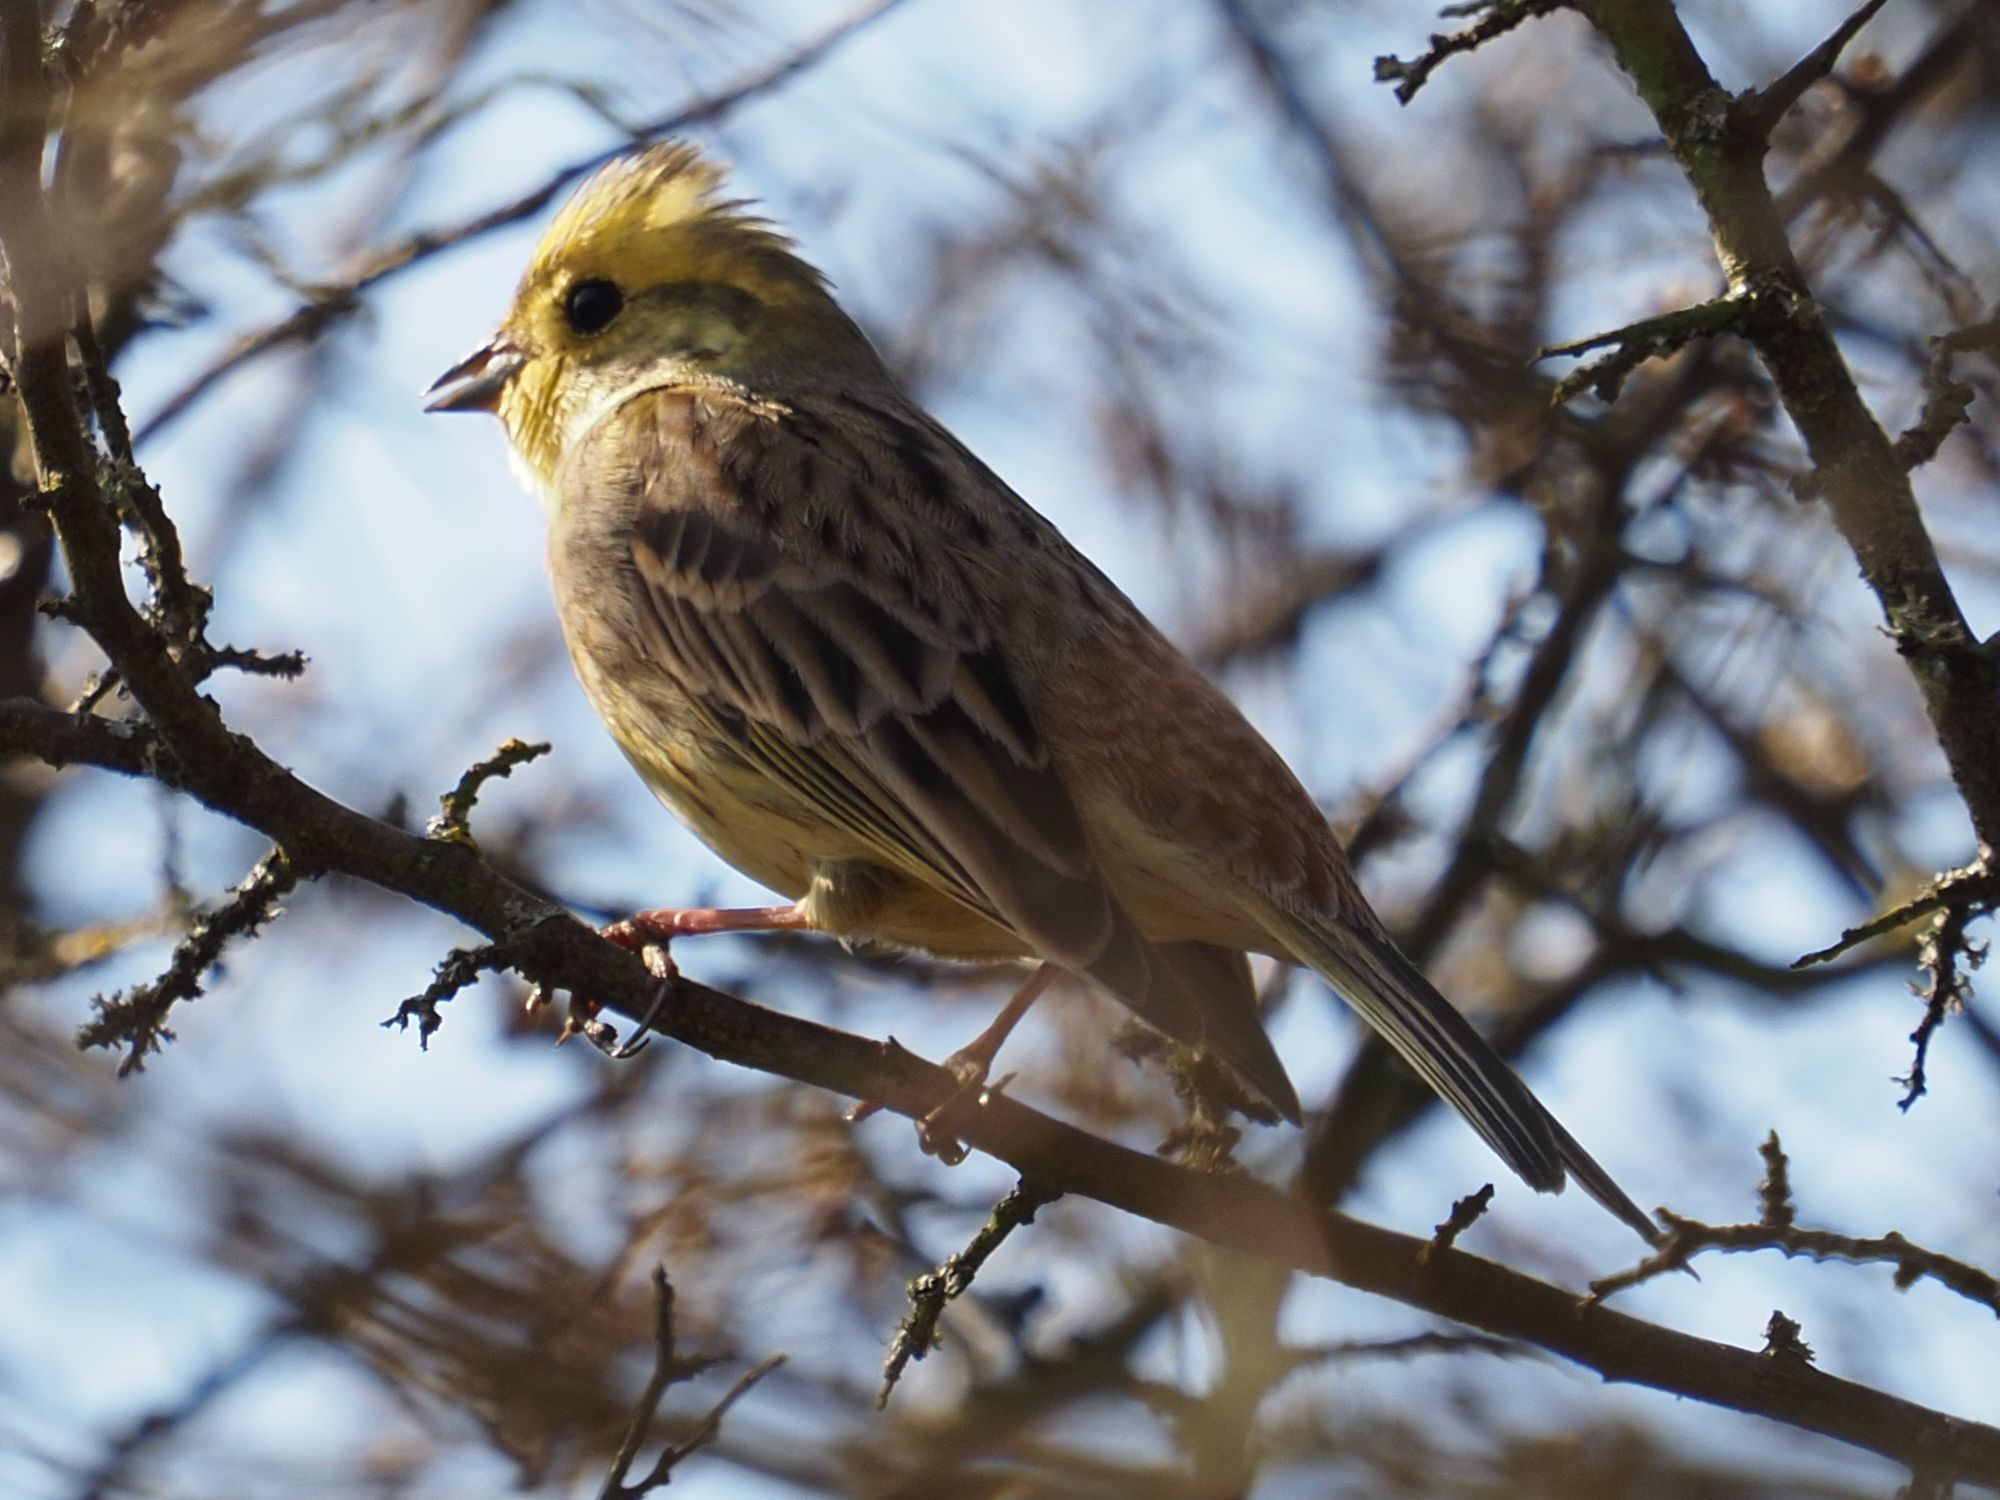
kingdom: Animalia
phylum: Chordata
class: Aves
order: Passeriformes
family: Emberizidae
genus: Emberiza
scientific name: Emberiza citrinella
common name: Yellowhammer
